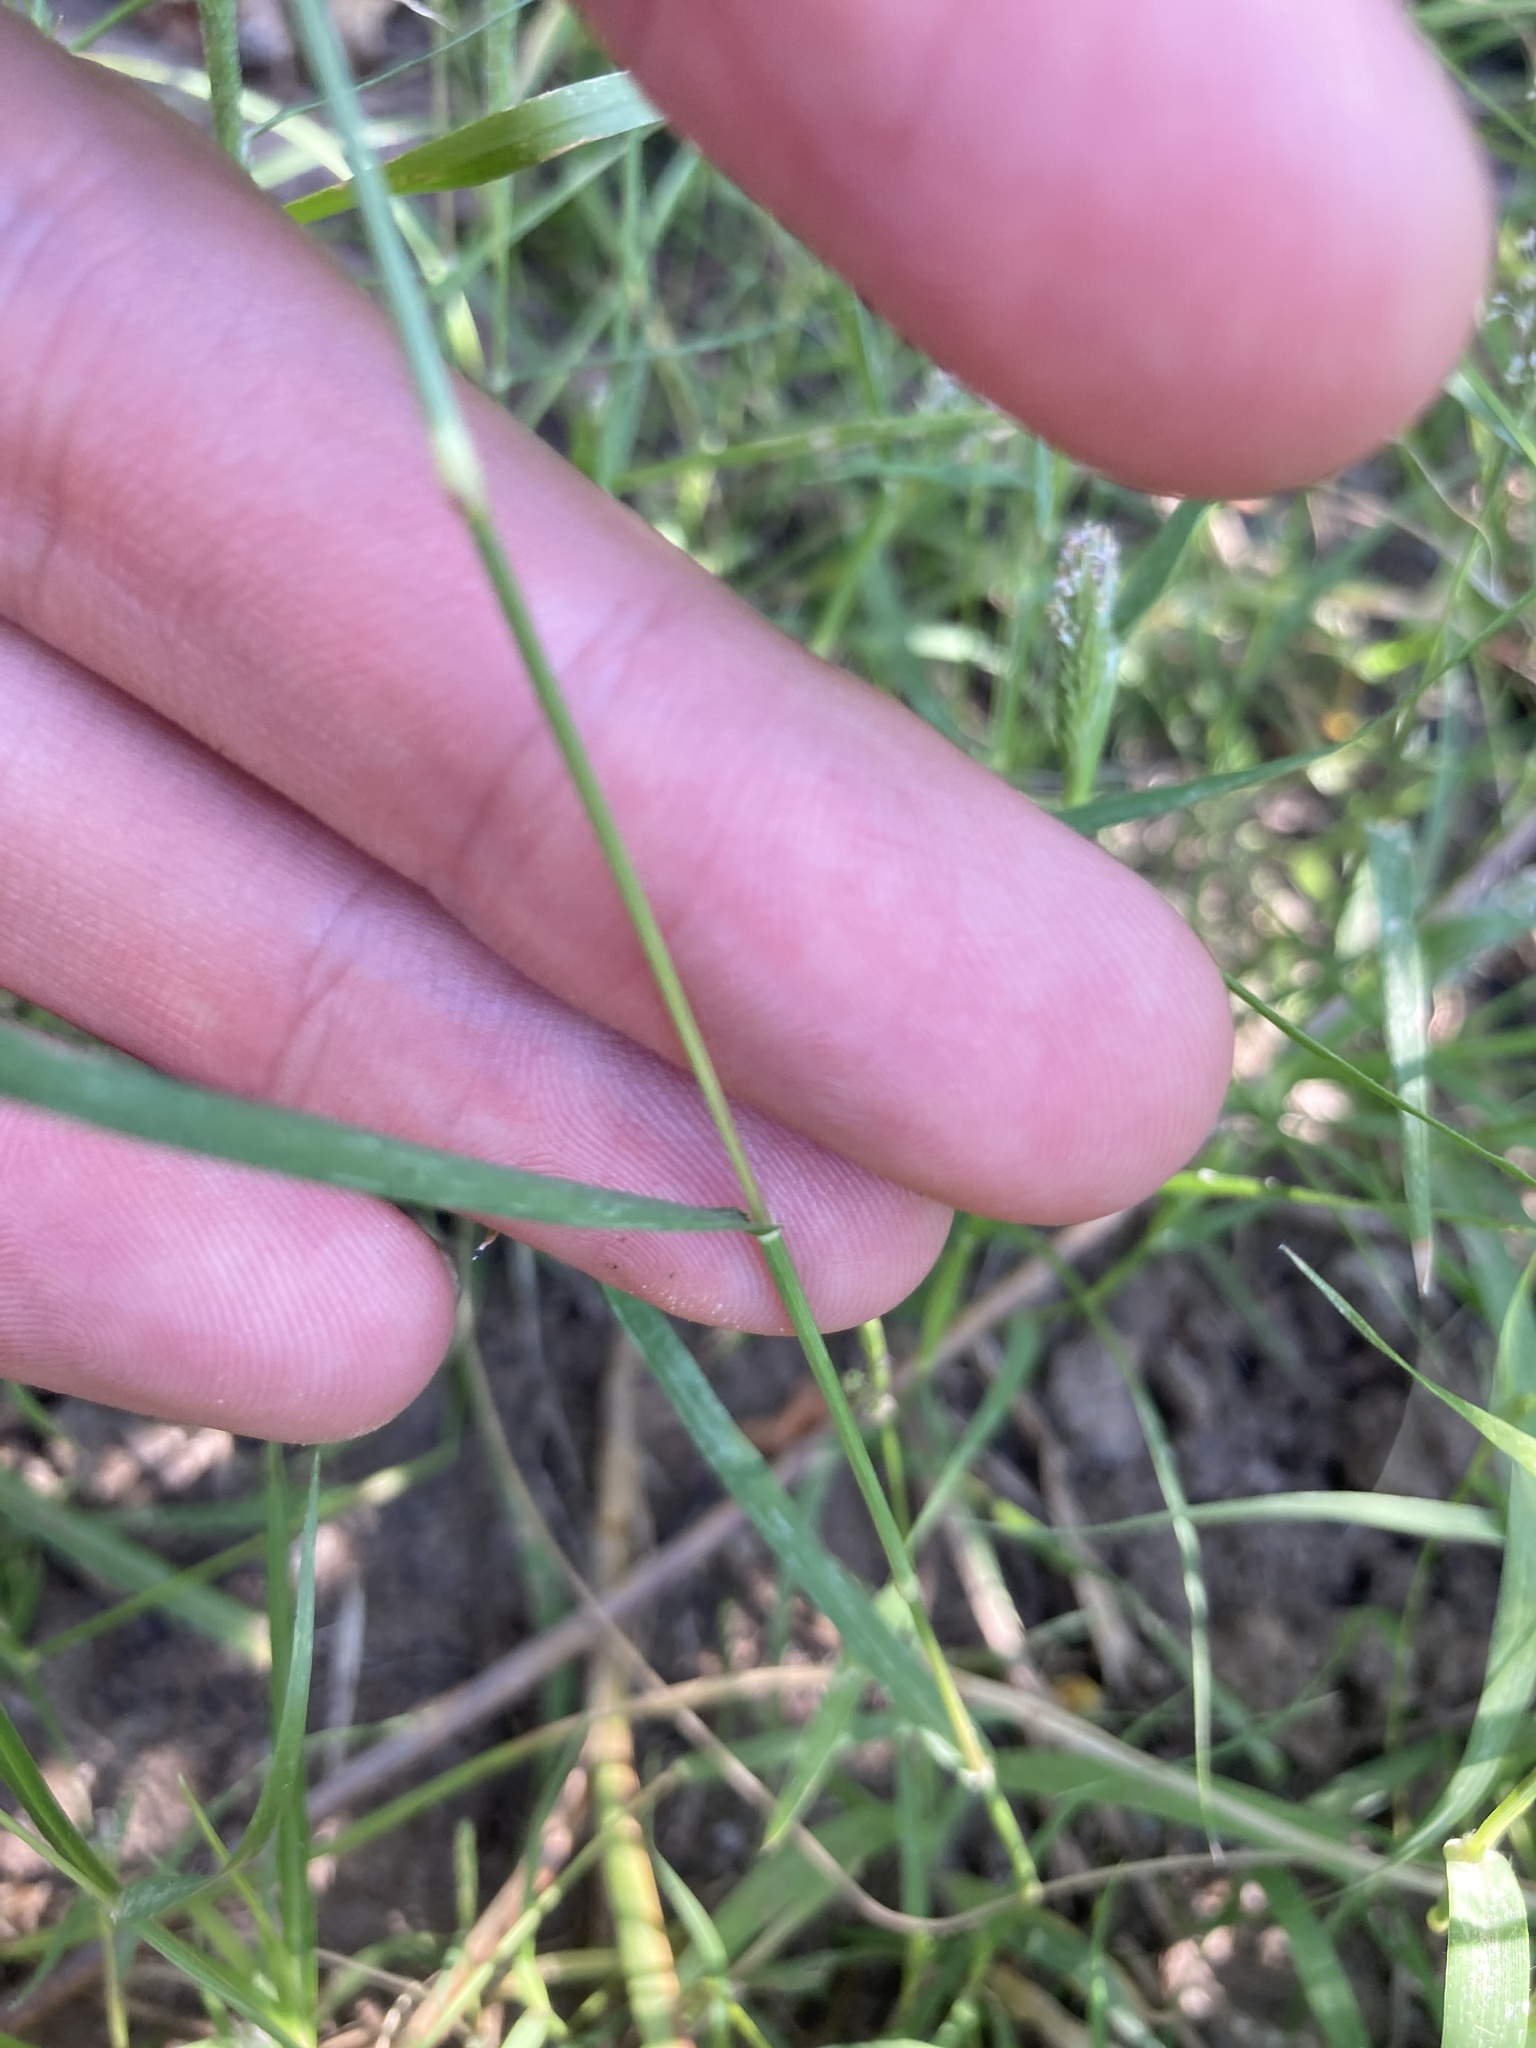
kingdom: Plantae
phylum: Tracheophyta
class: Liliopsida
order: Poales
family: Poaceae
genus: Sporobolus
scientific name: Sporobolus alopecuroides
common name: Foxtail pricklegrass
